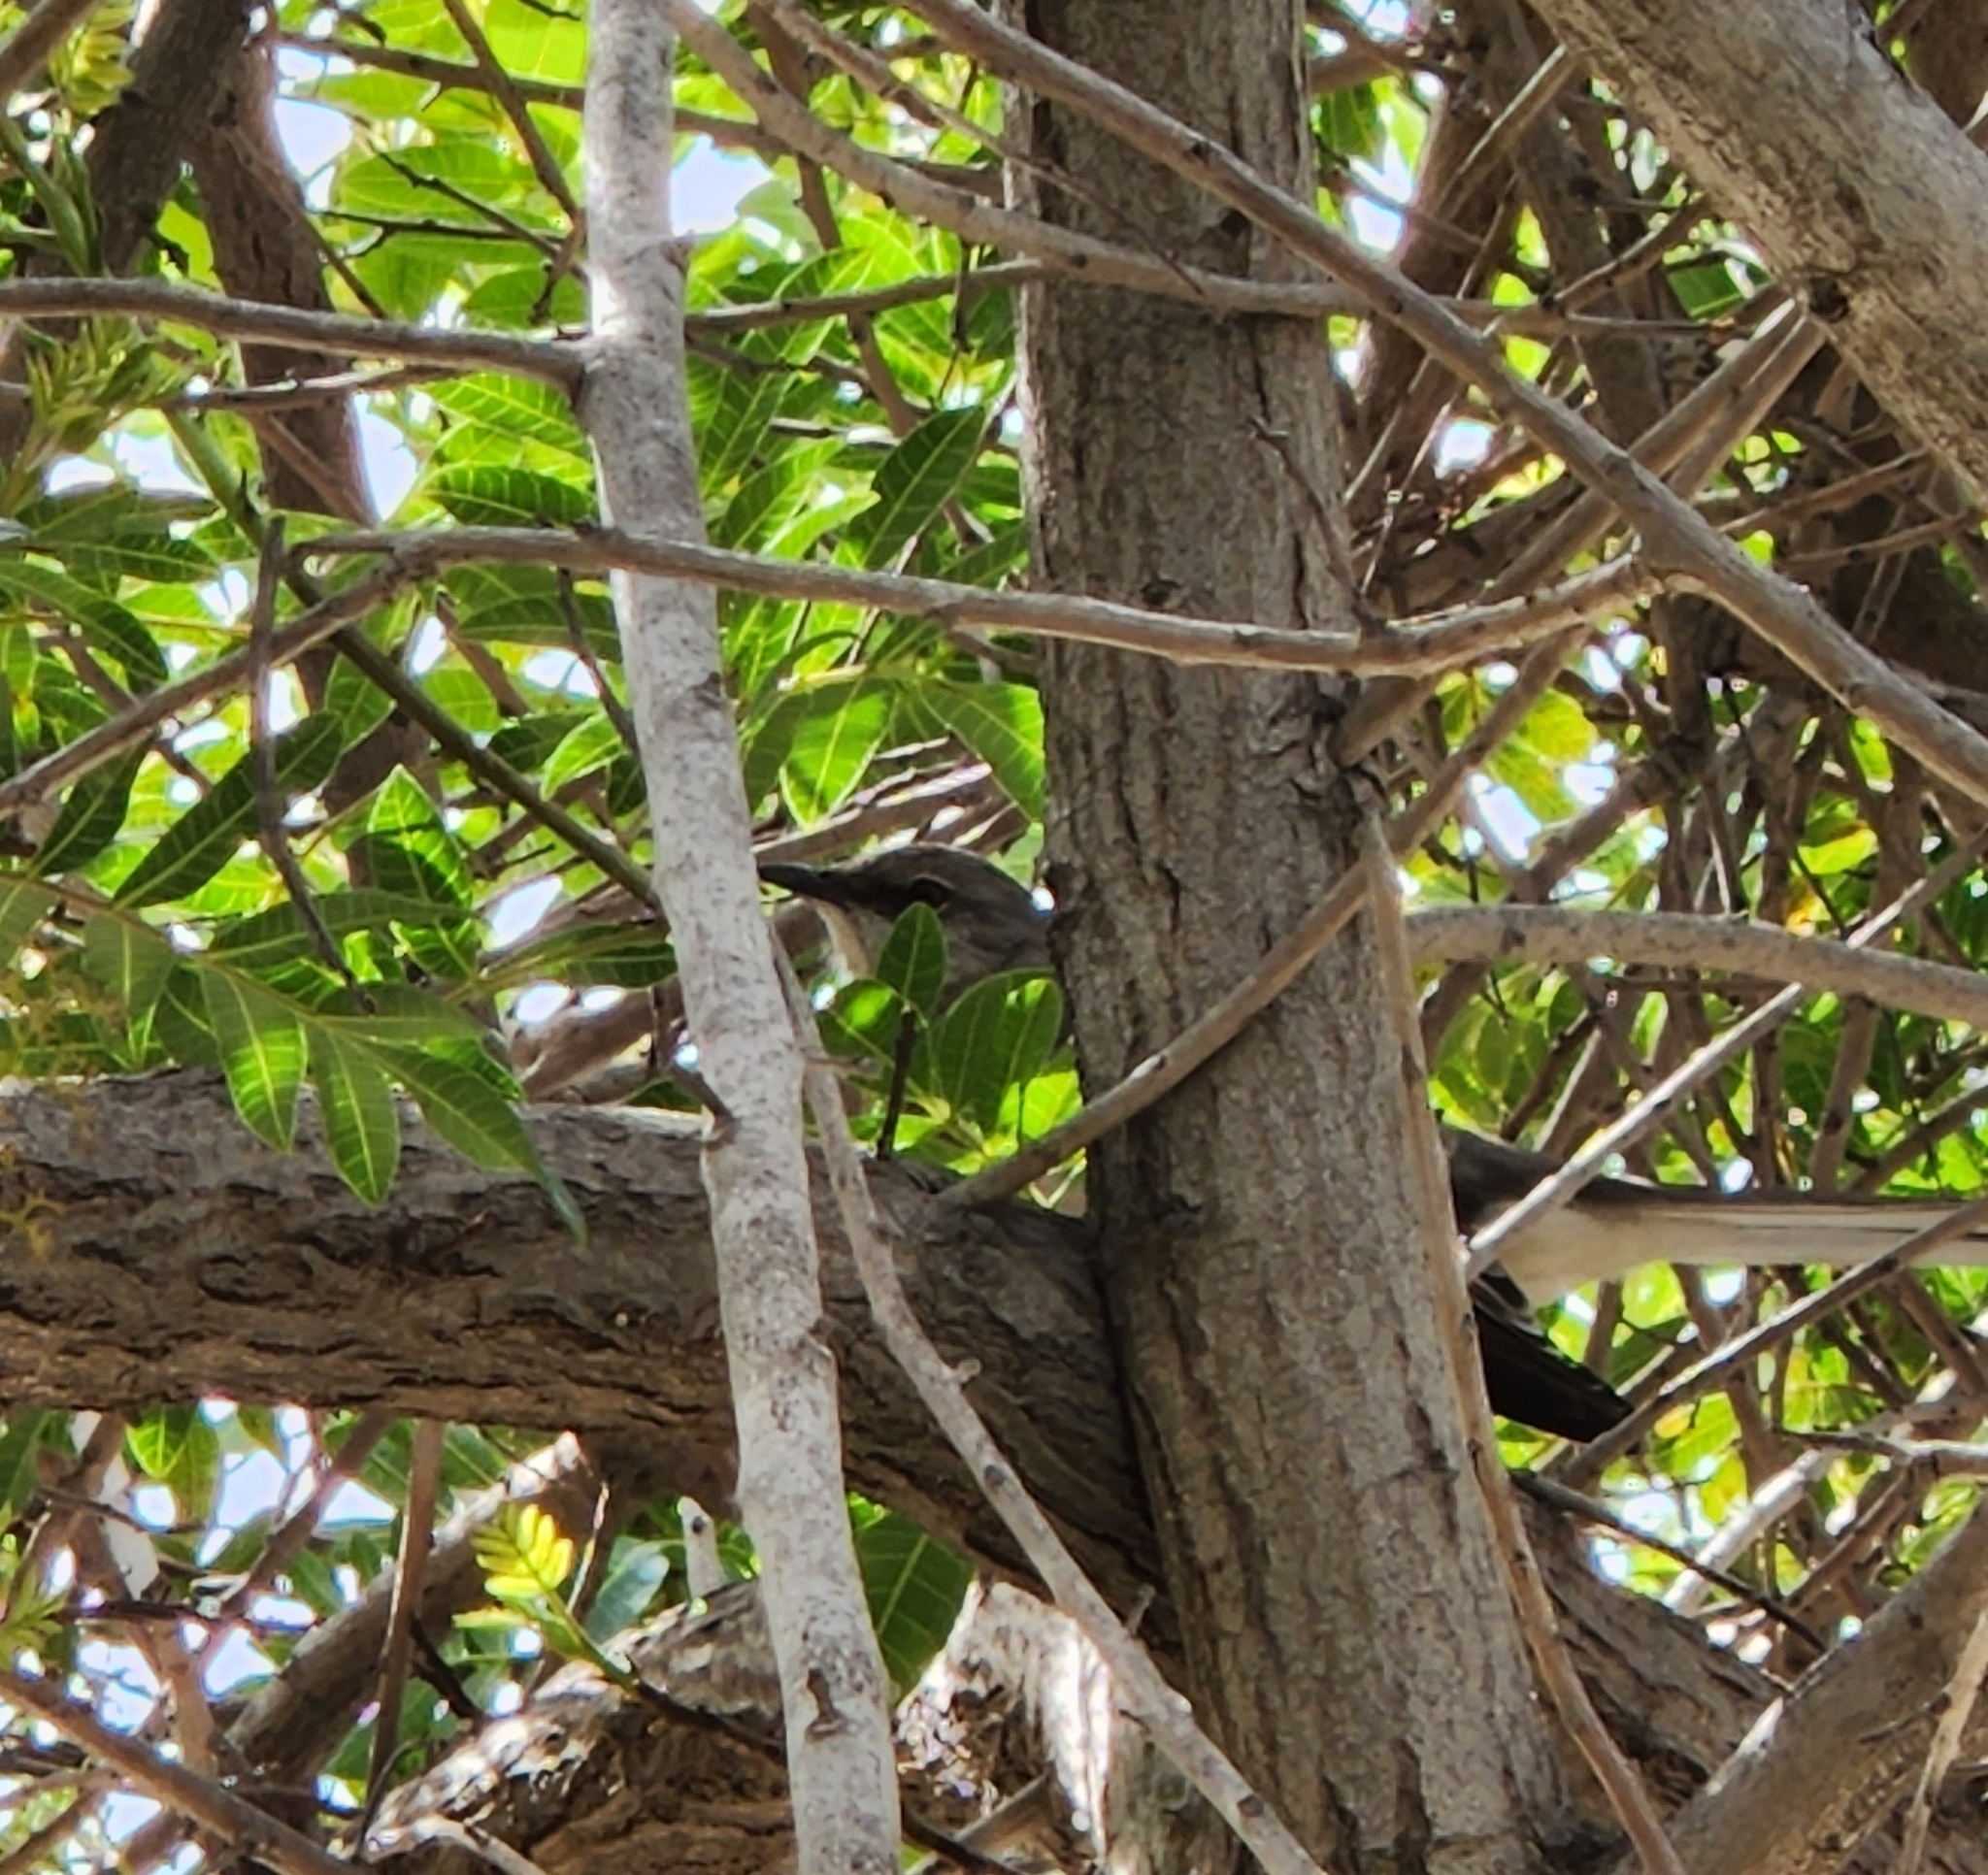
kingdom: Animalia
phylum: Chordata
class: Aves
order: Passeriformes
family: Mimidae
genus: Mimus
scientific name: Mimus polyglottos
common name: Northern mockingbird
